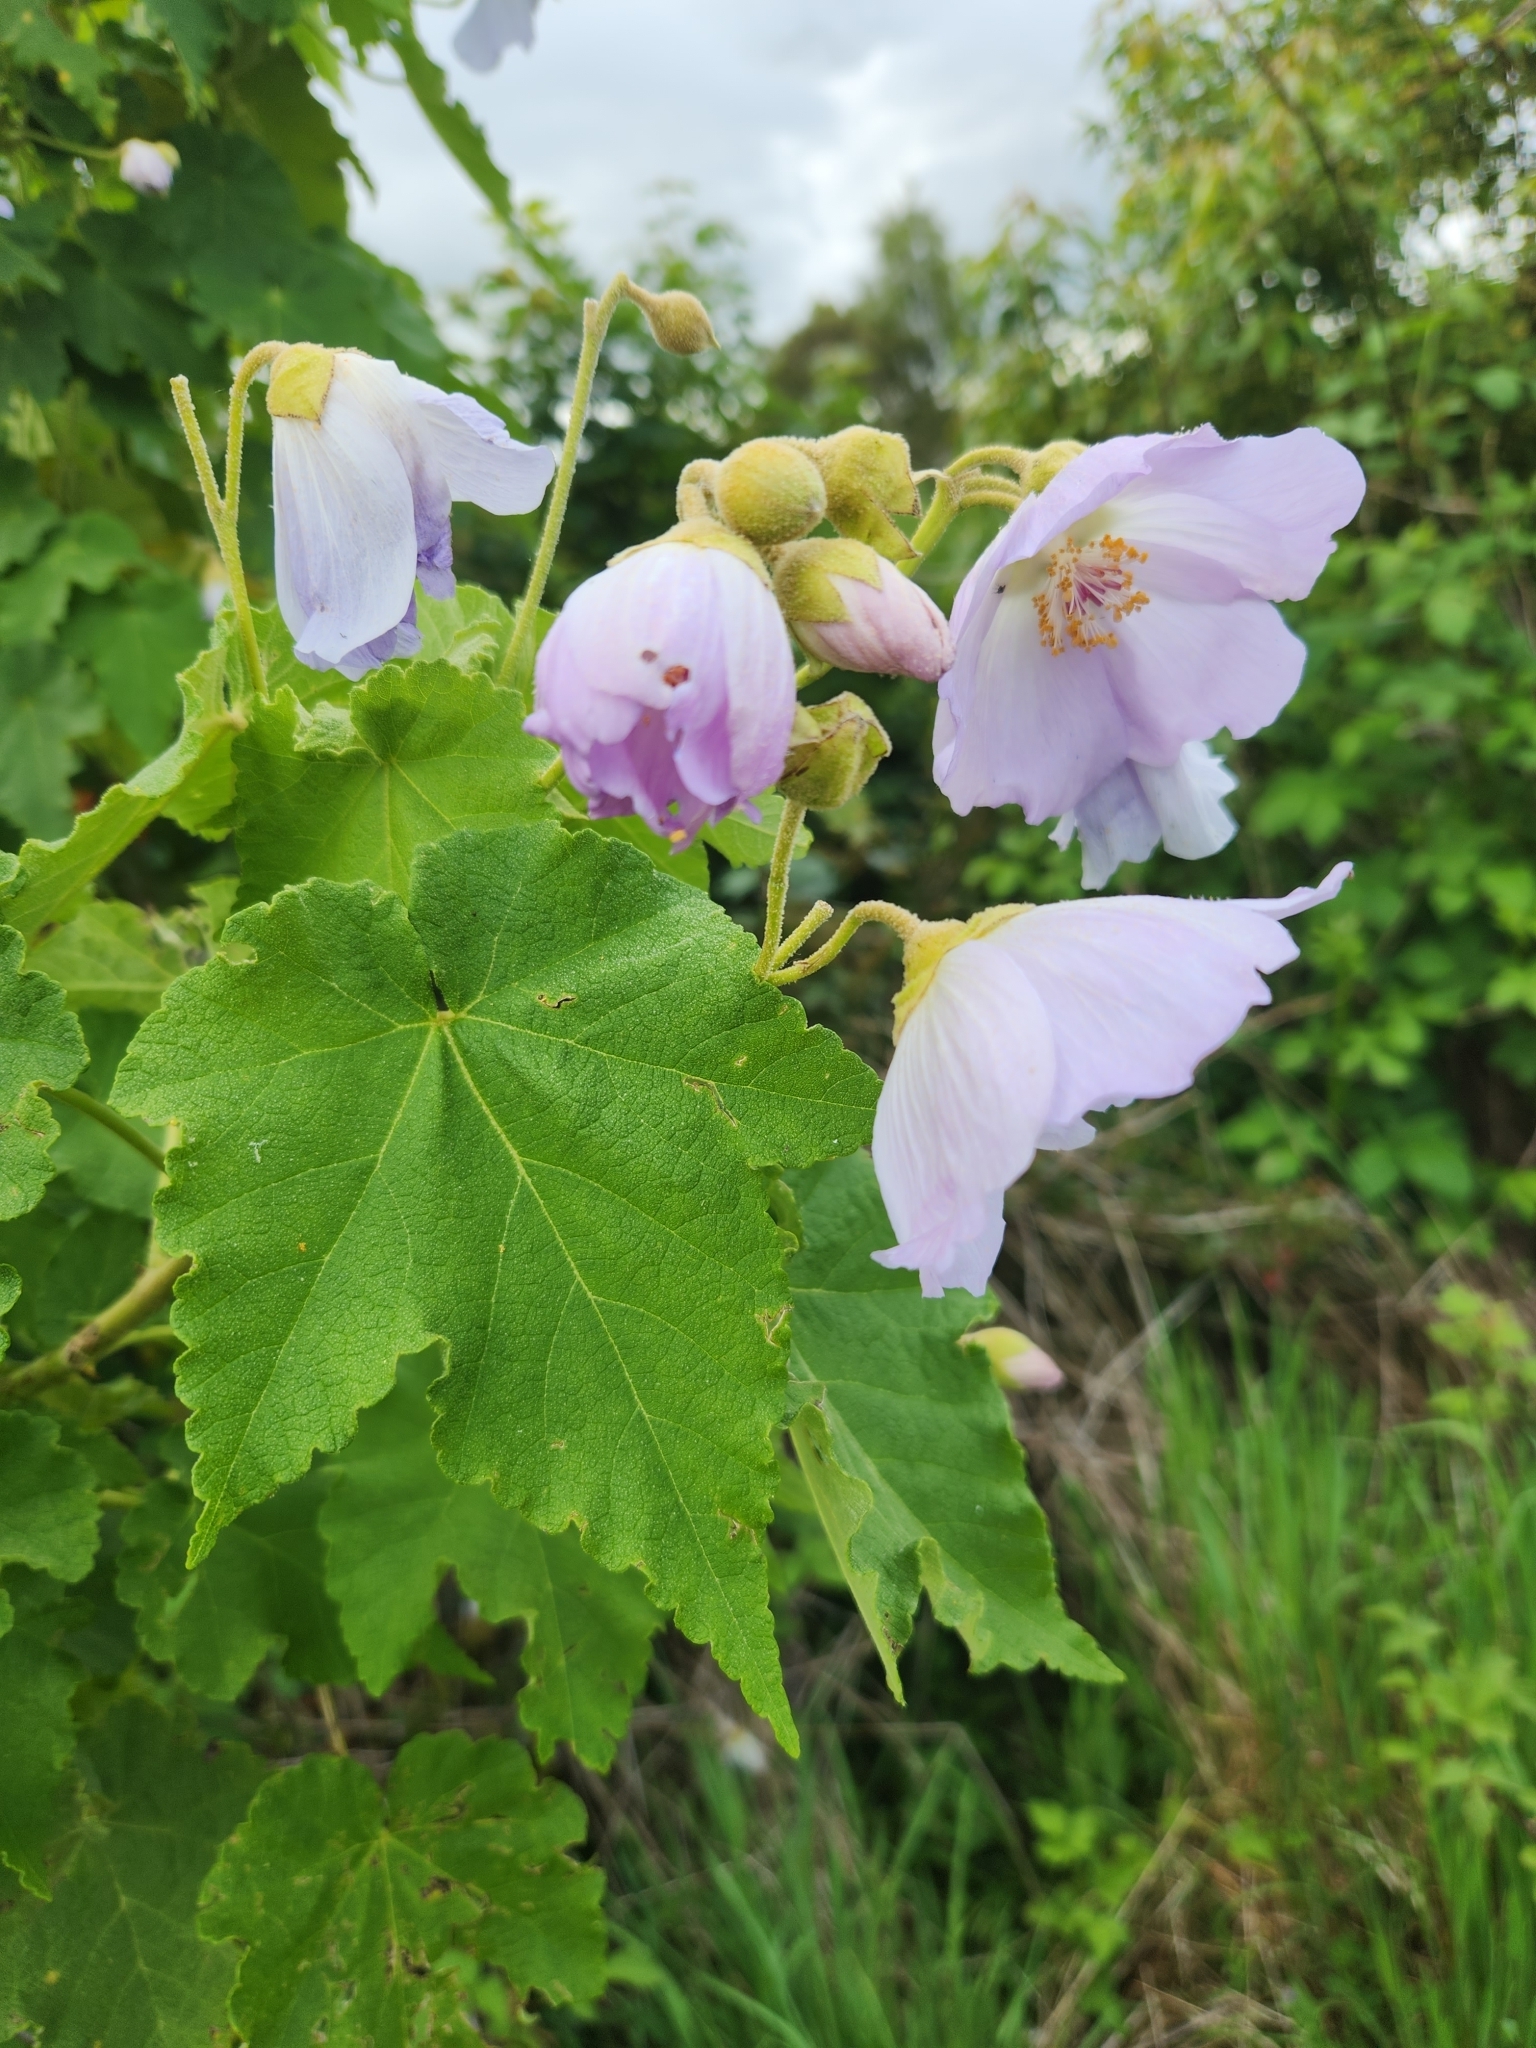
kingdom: Plantae
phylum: Tracheophyta
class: Magnoliopsida
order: Malvales
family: Malvaceae
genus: Corynabutilon
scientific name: Corynabutilon vitifolium
